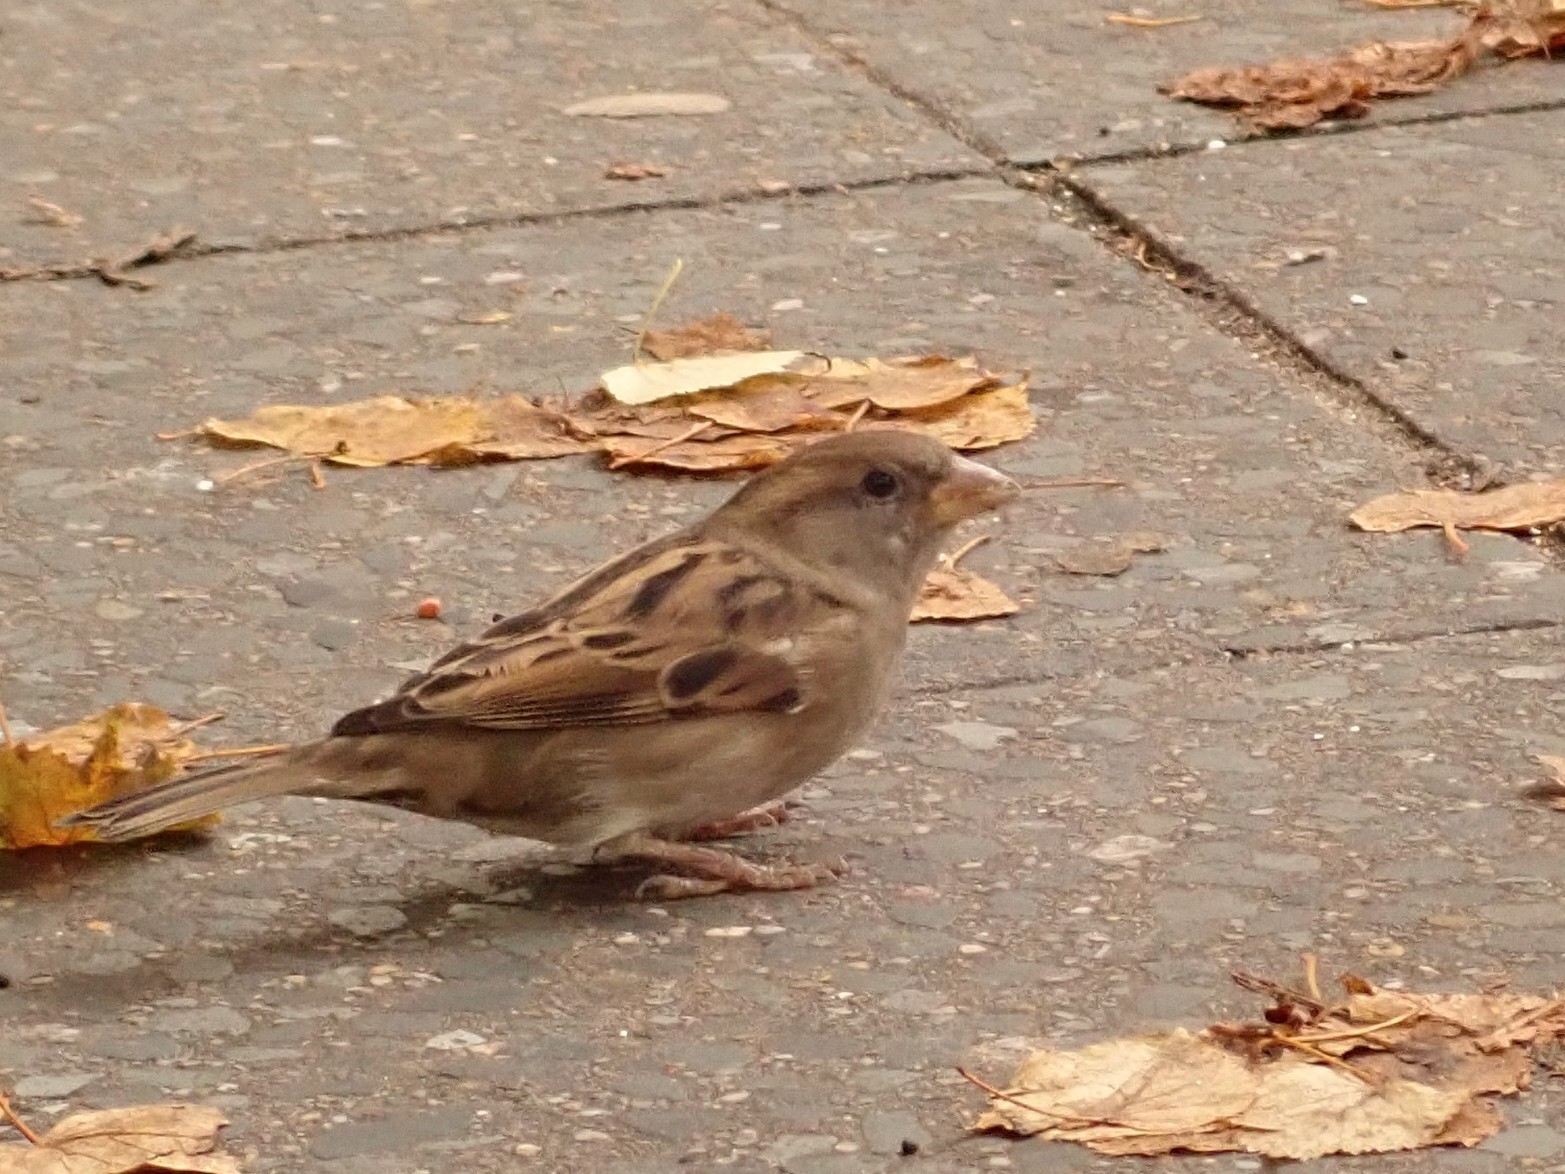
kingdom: Animalia
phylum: Chordata
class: Aves
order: Passeriformes
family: Passeridae
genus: Passer
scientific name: Passer domesticus
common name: House sparrow
